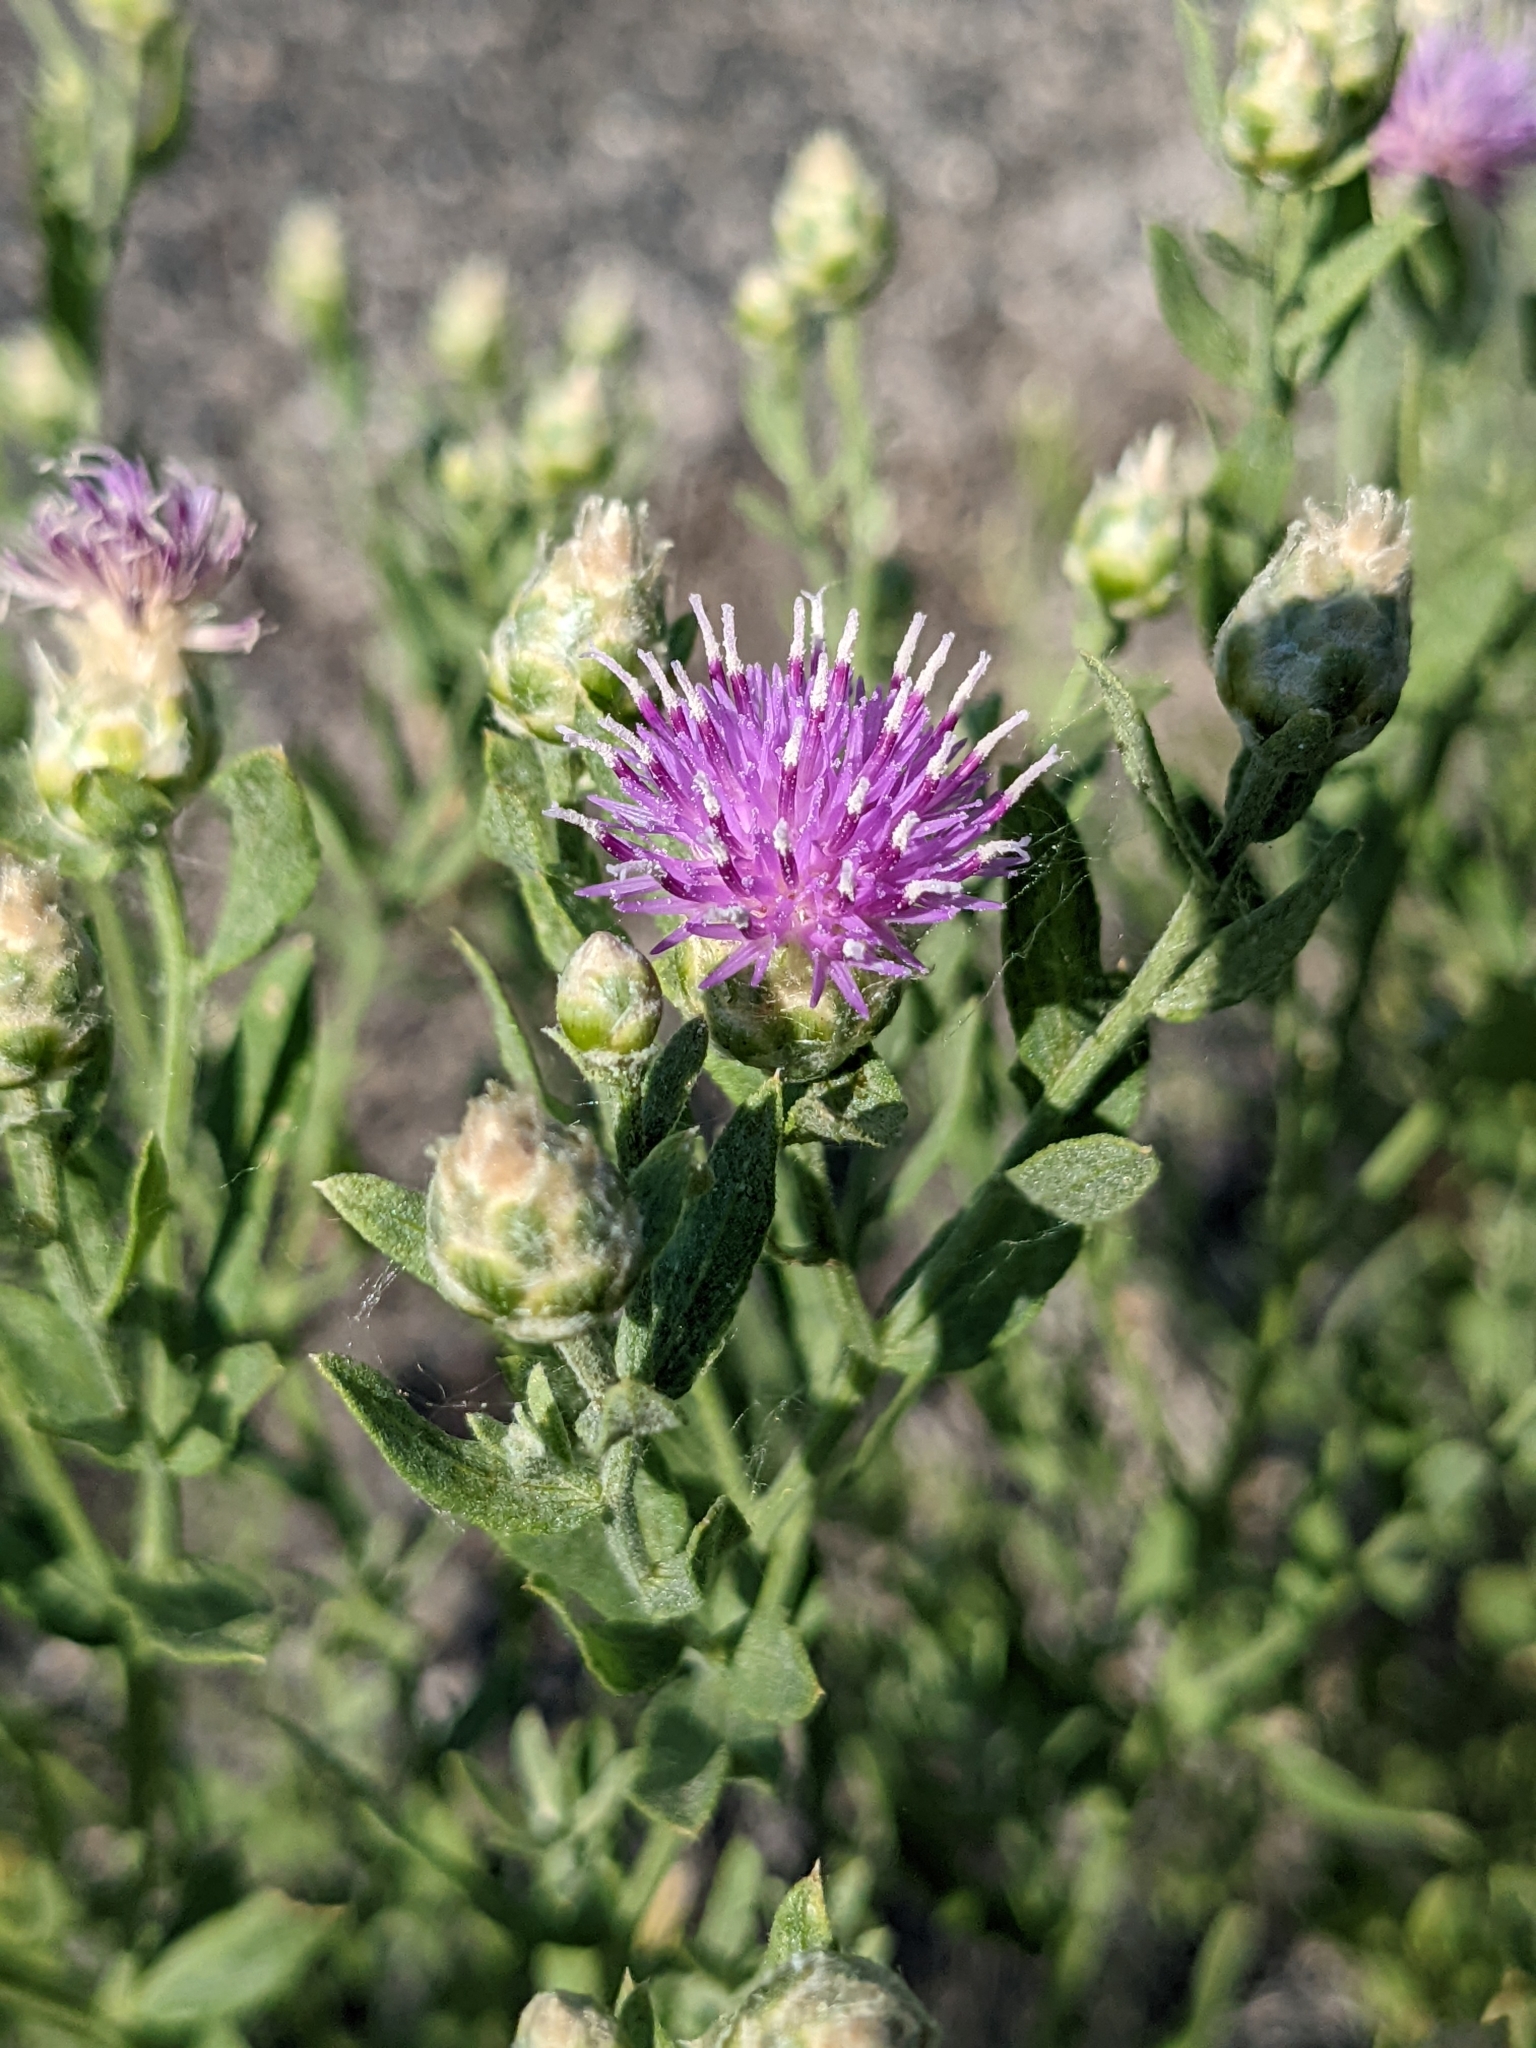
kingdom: Plantae
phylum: Tracheophyta
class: Magnoliopsida
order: Asterales
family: Asteraceae
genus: Leuzea
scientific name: Leuzea repens
